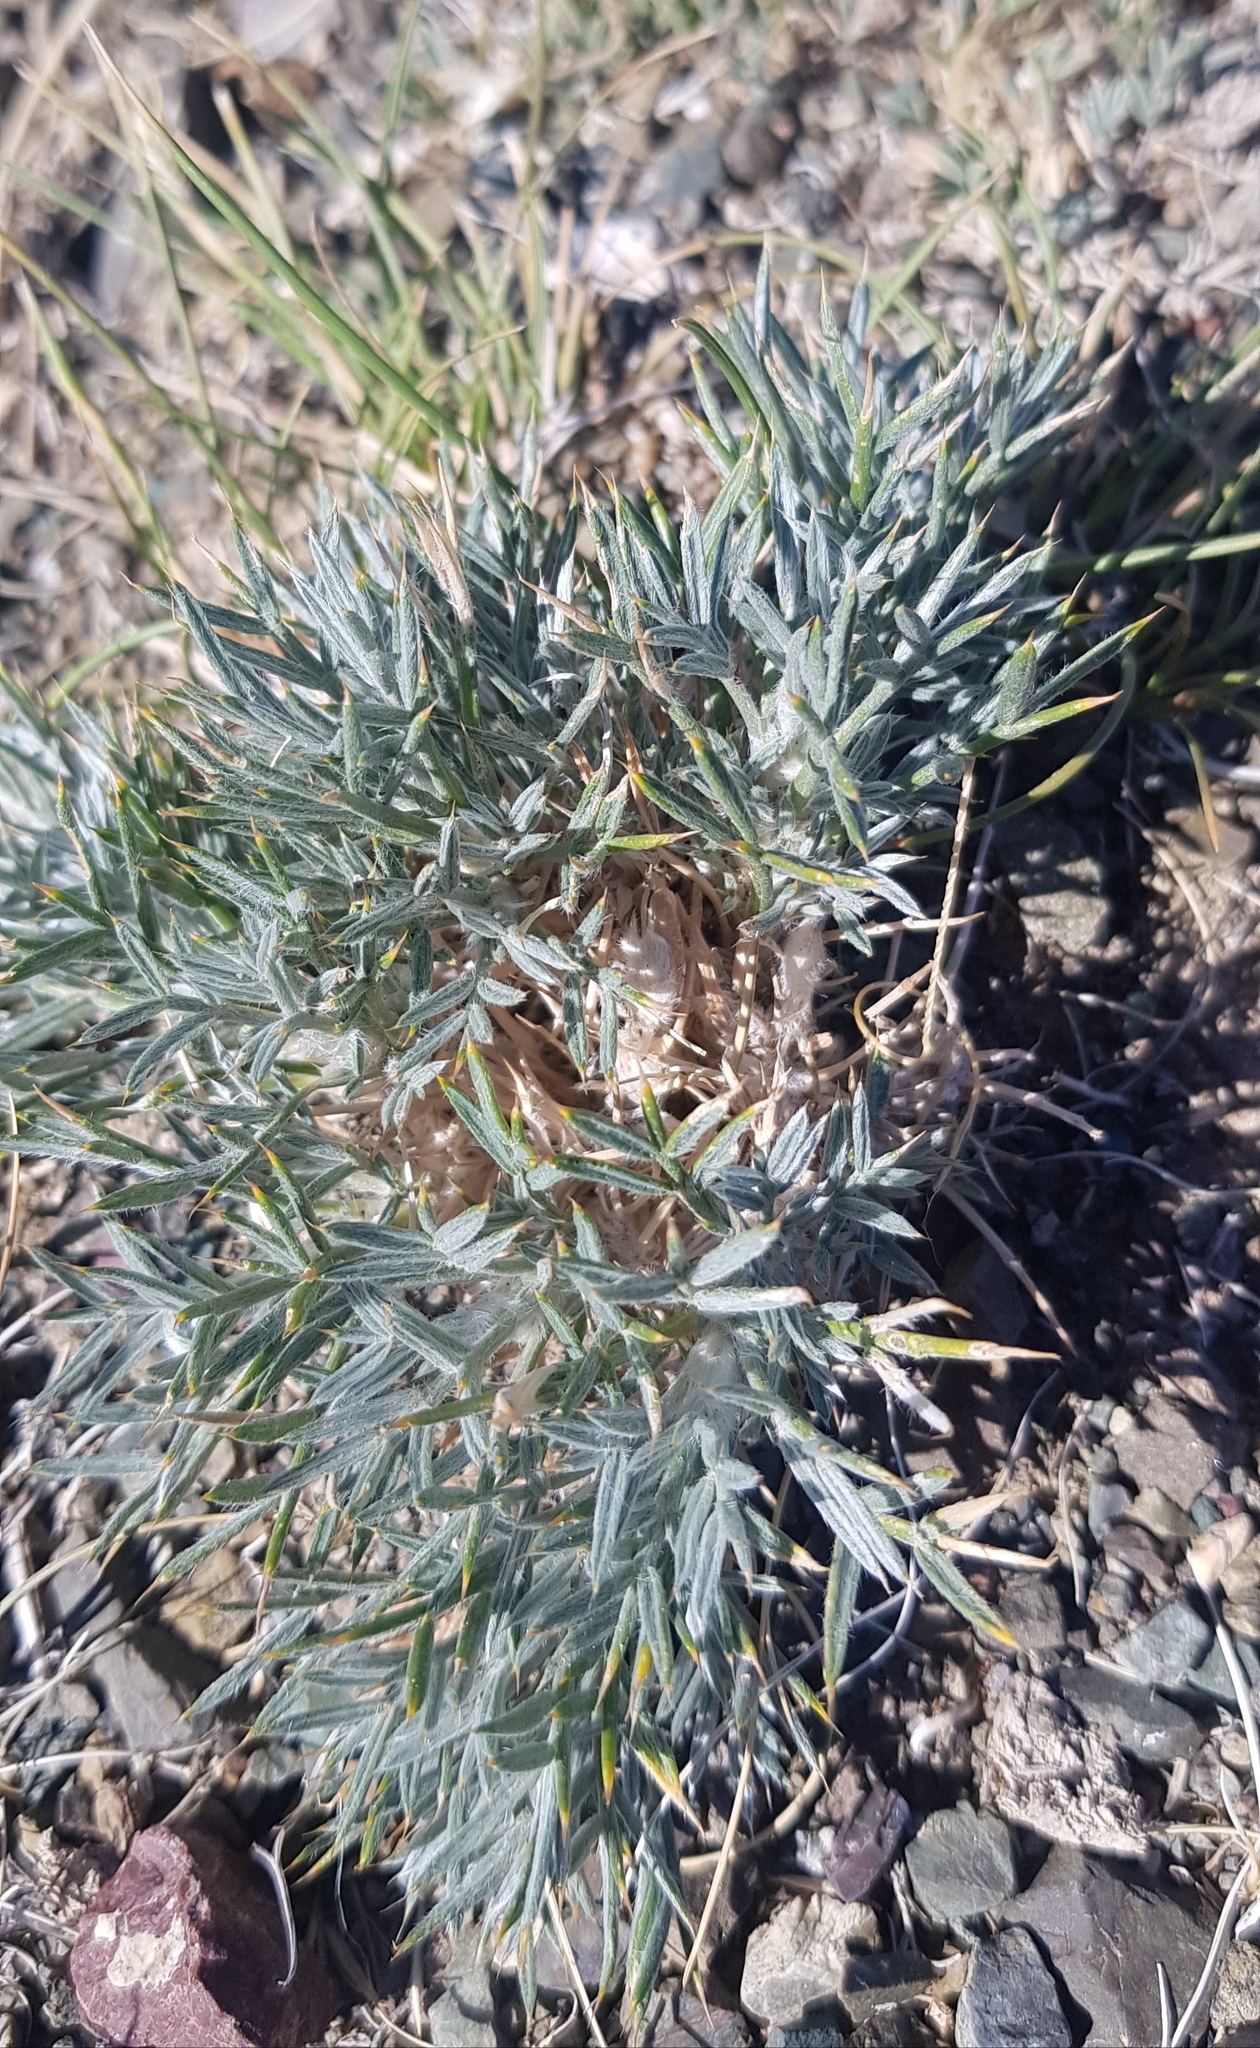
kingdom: Plantae
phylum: Tracheophyta
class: Magnoliopsida
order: Fabales
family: Fabaceae
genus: Oxytropis
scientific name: Oxytropis aciphylla
